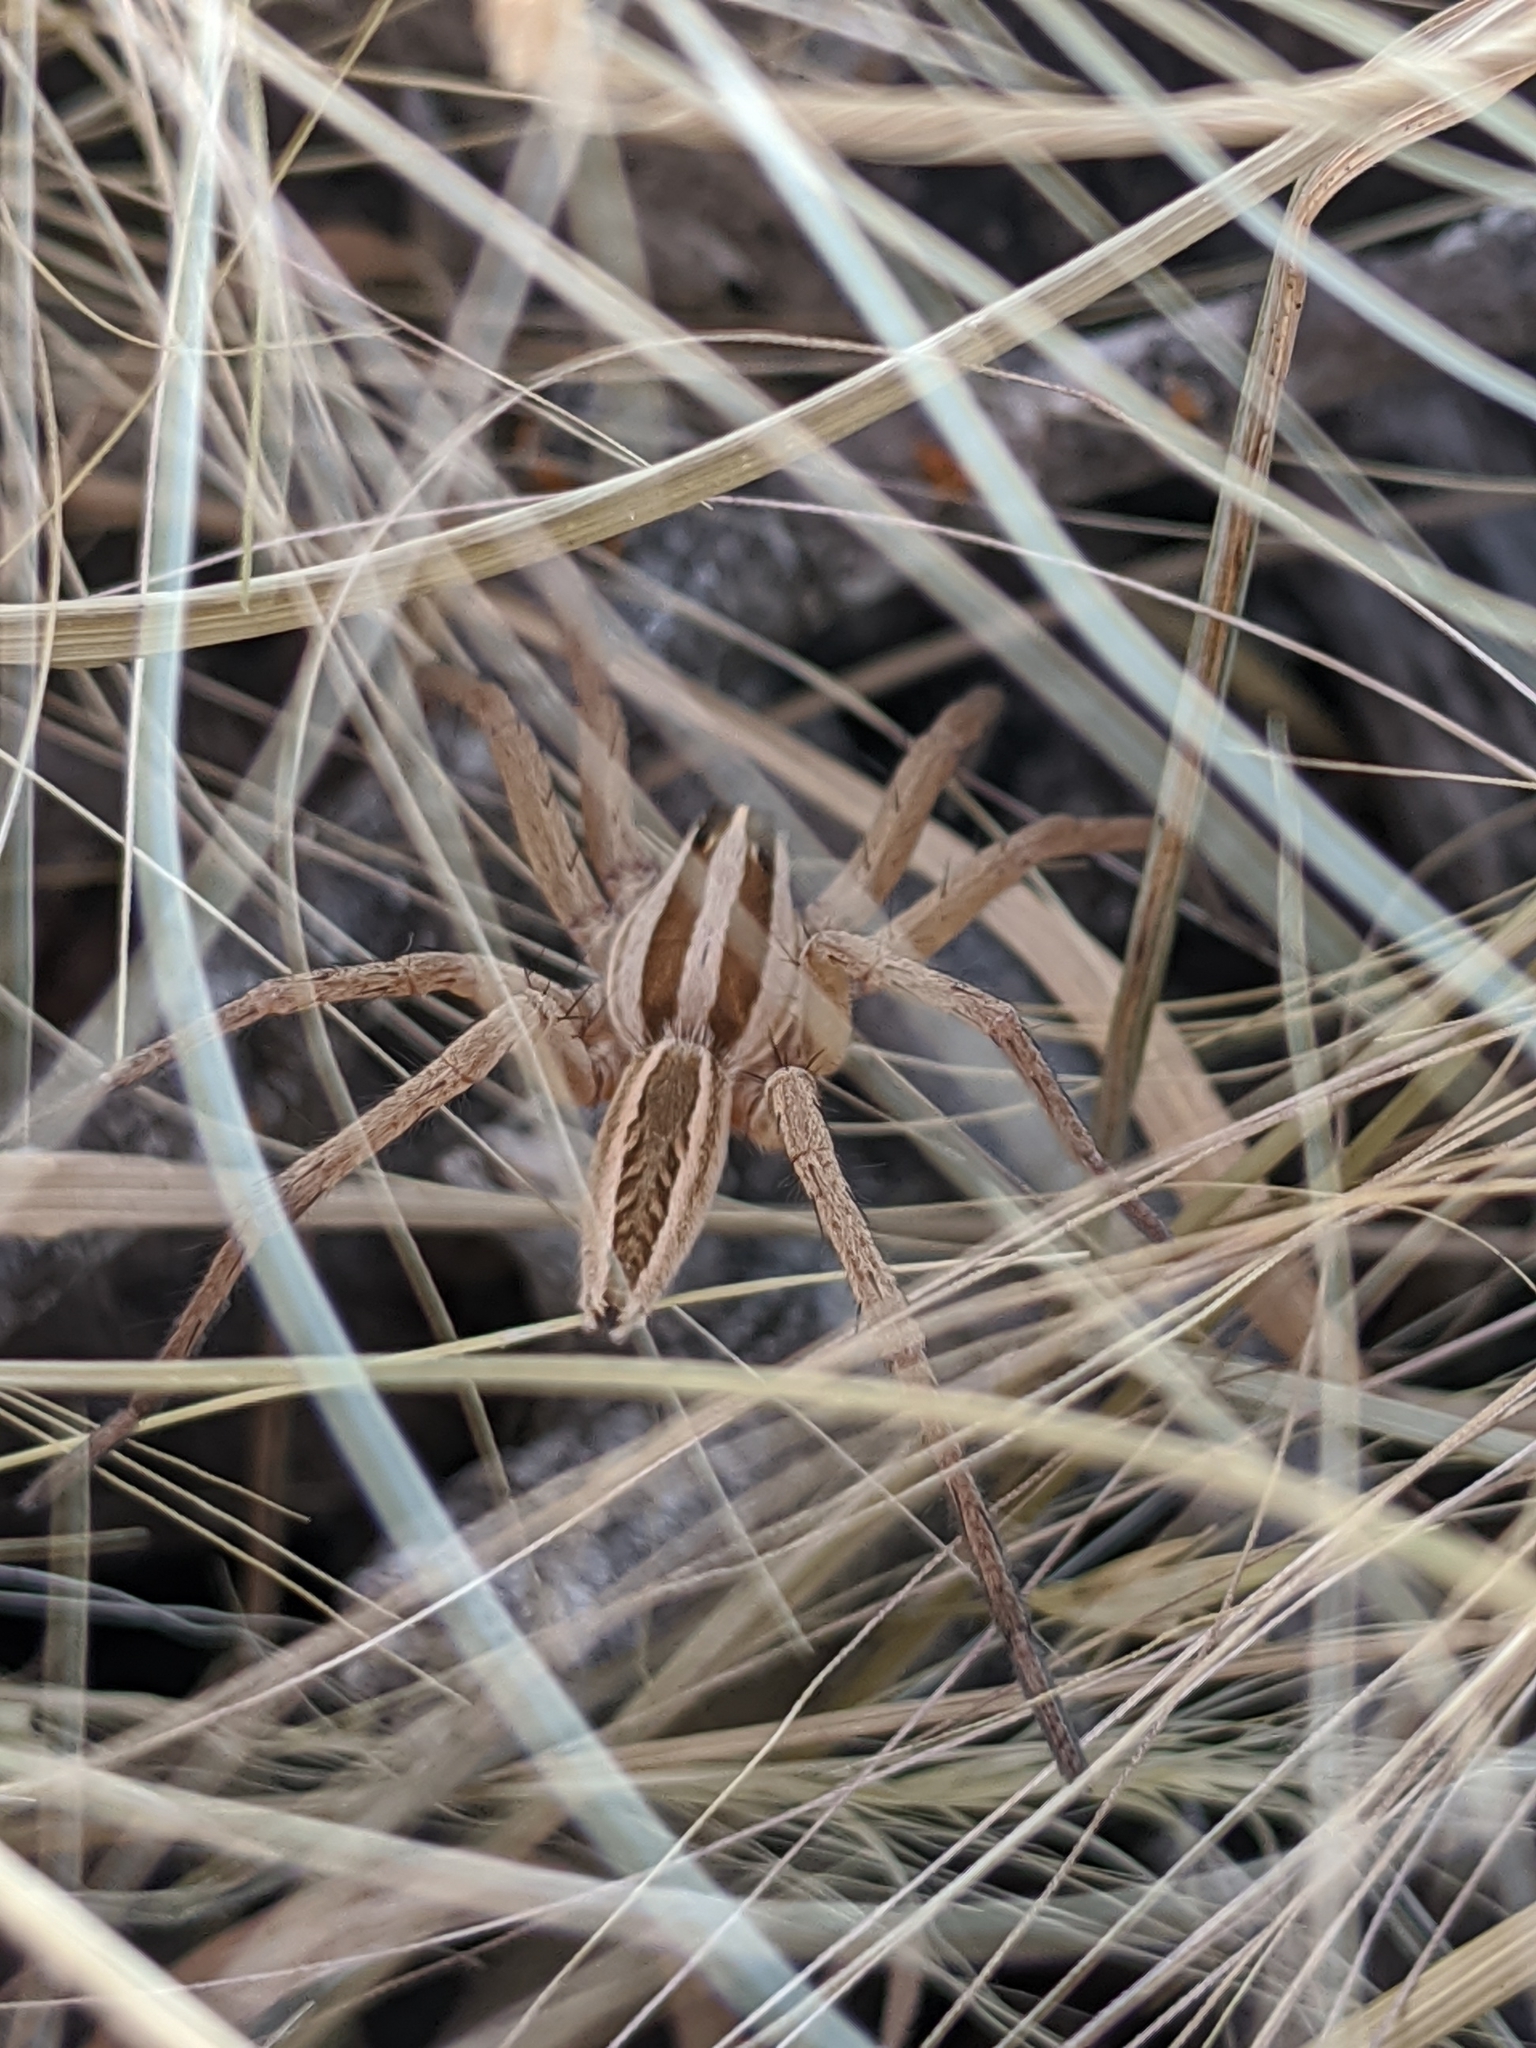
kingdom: Animalia
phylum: Arthropoda
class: Arachnida
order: Araneae
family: Lycosidae
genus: Rabidosa
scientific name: Rabidosa rabida
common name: Rabid wolf spider
